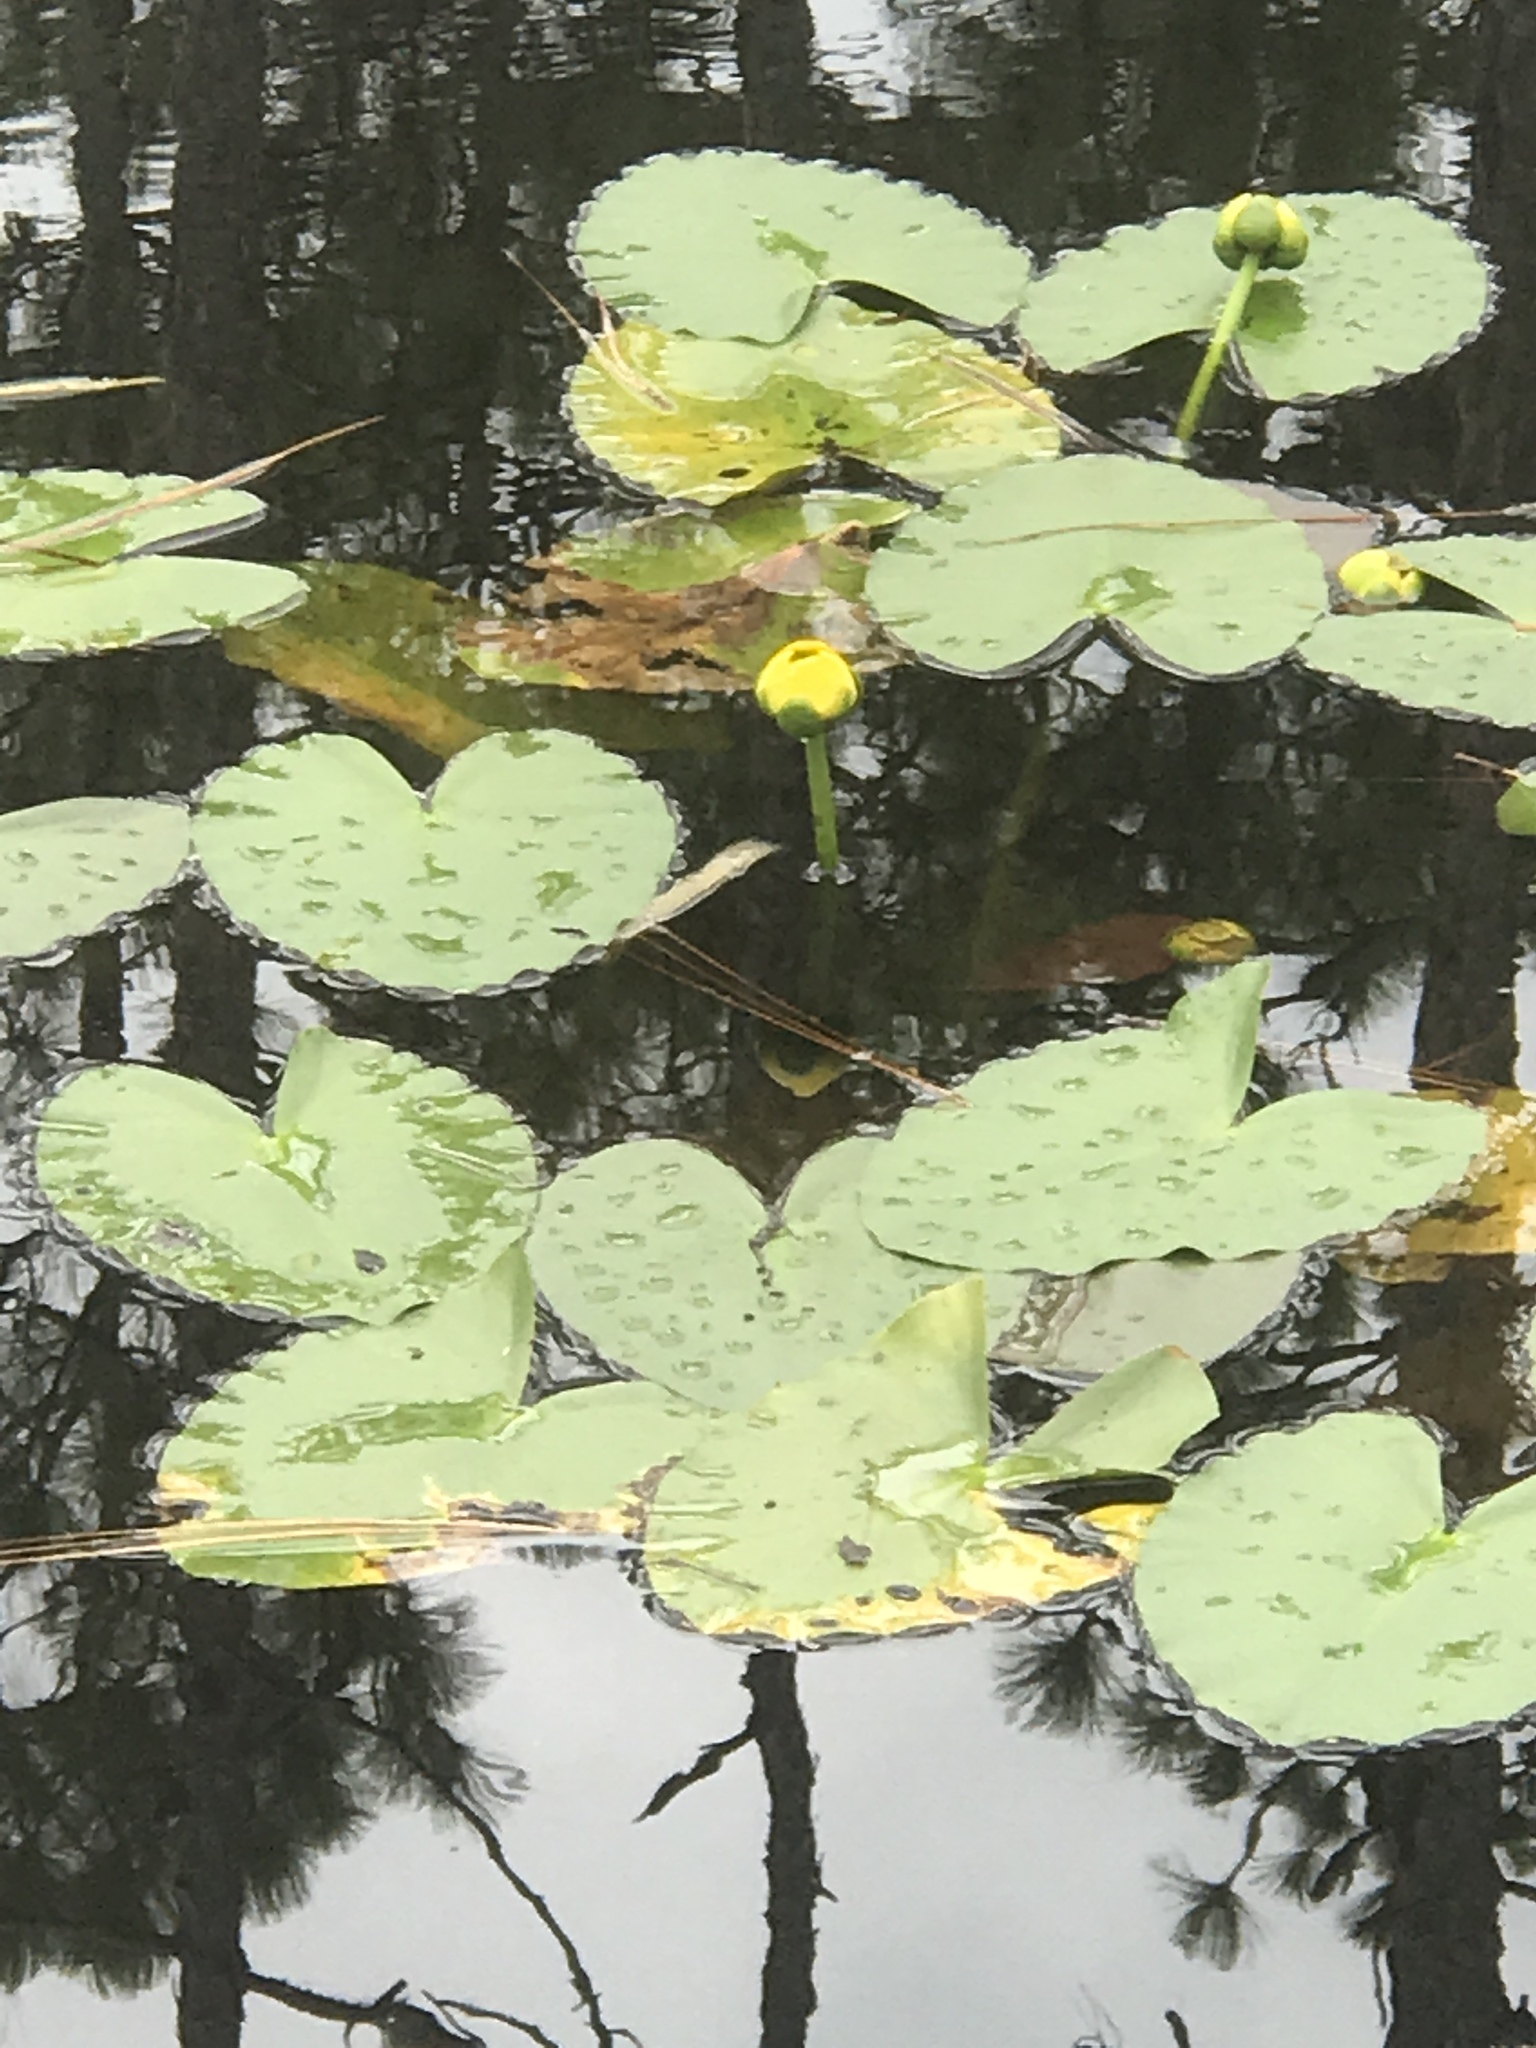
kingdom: Plantae
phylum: Tracheophyta
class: Magnoliopsida
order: Nymphaeales
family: Nymphaeaceae
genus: Nuphar
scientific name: Nuphar advena
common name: Spatter-dock
